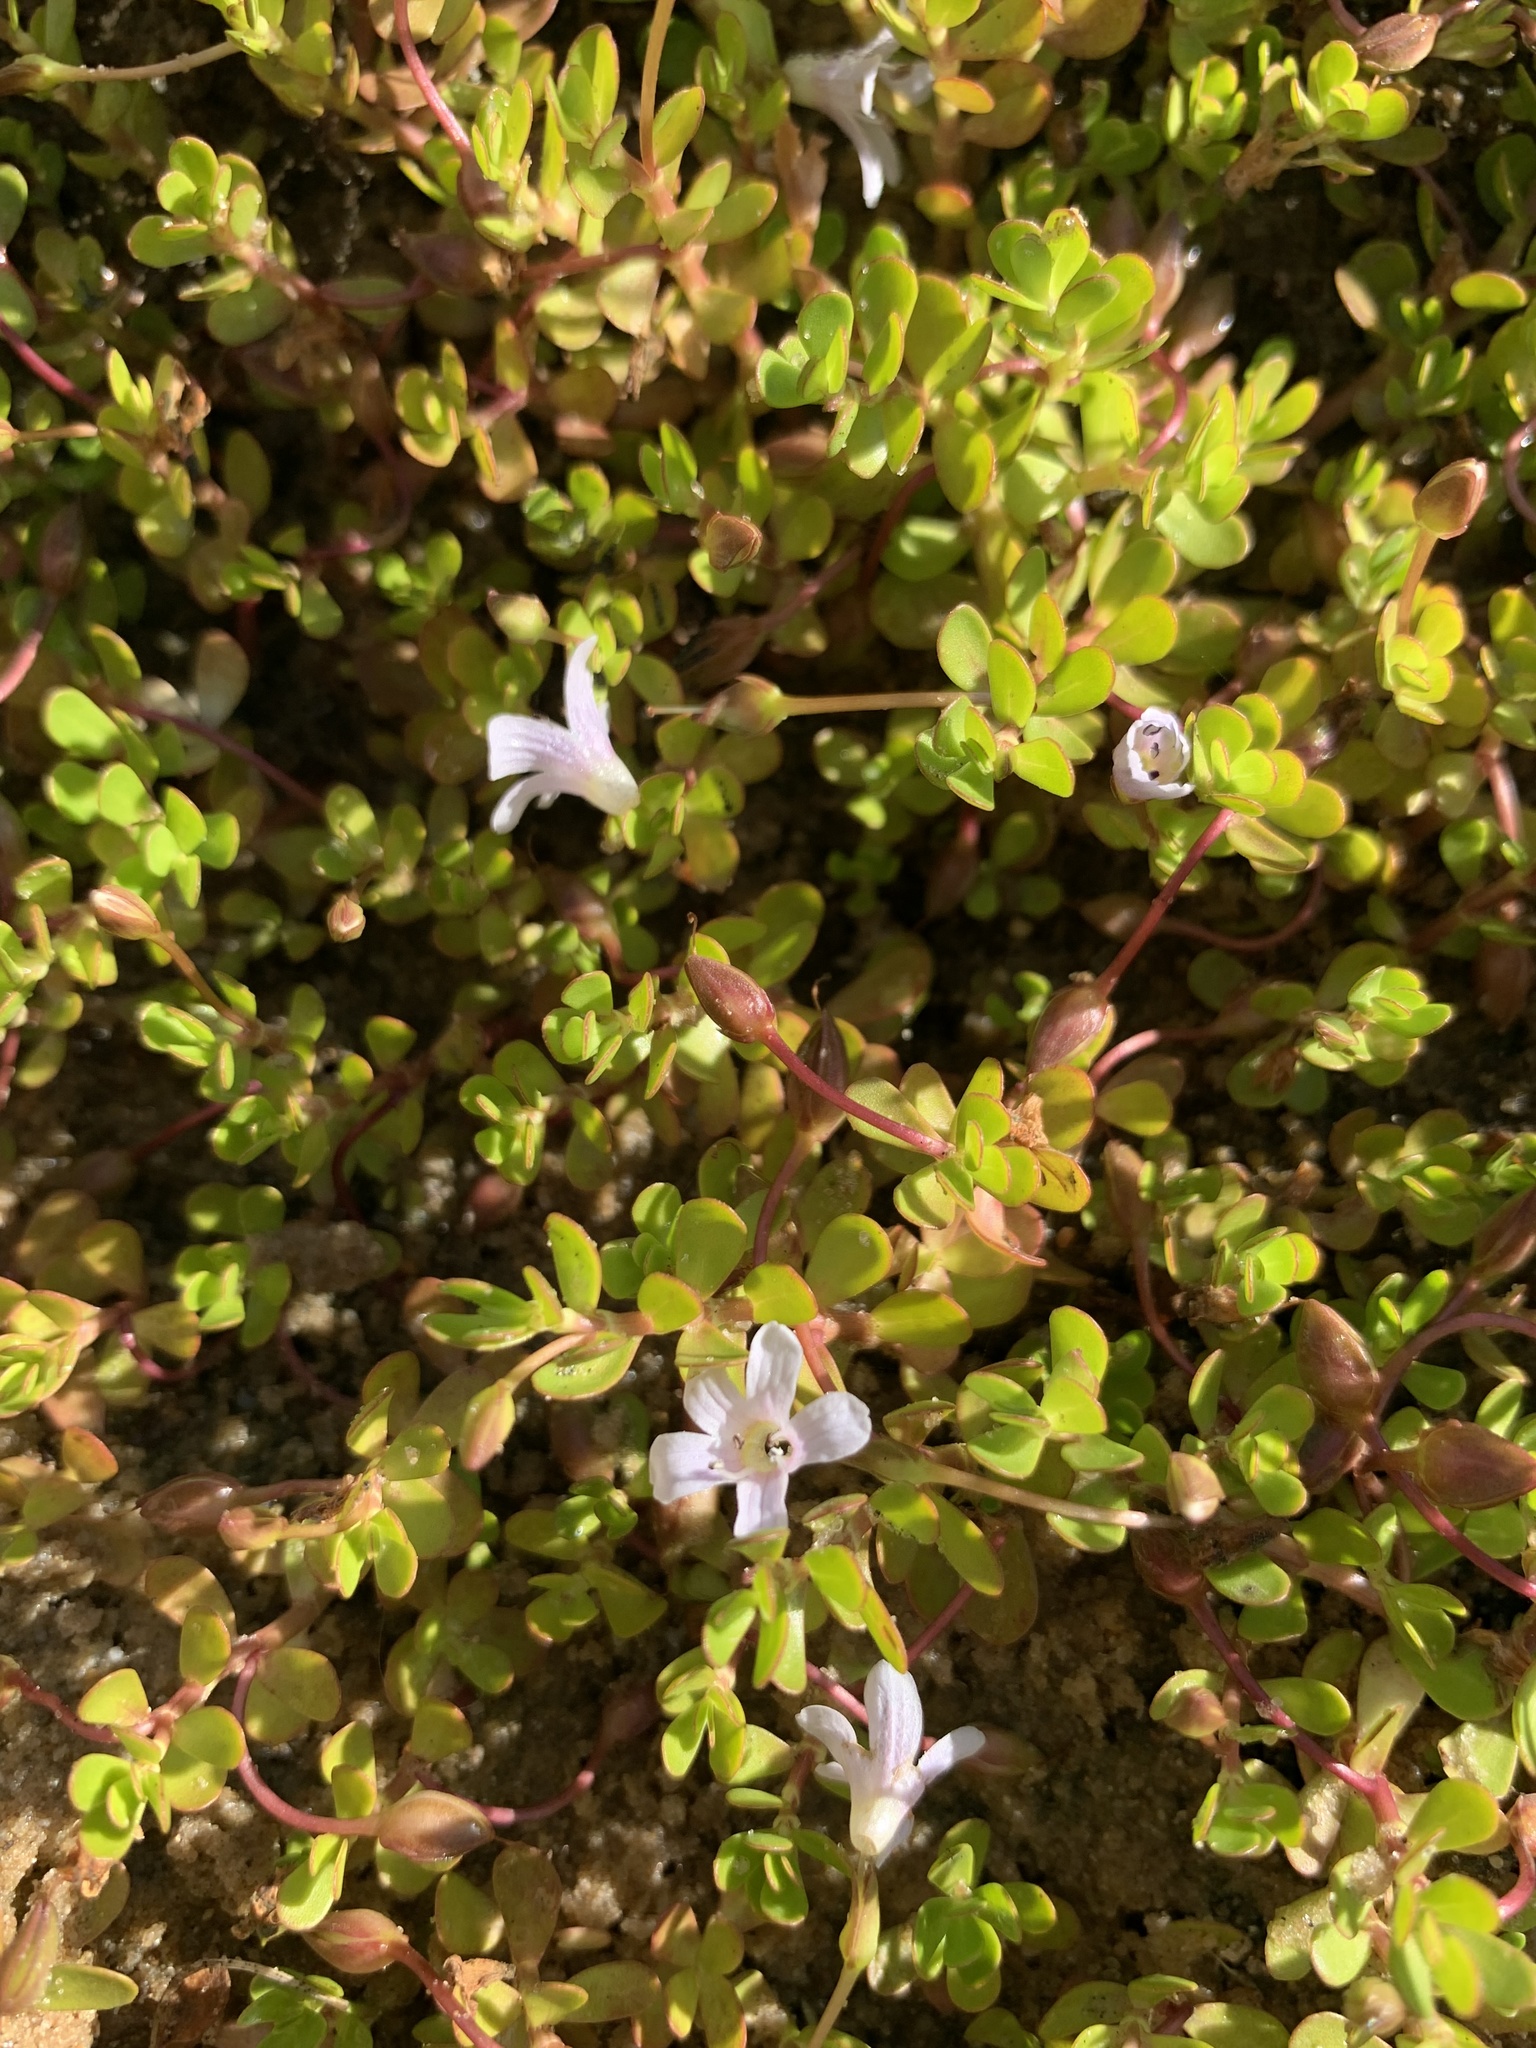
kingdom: Plantae
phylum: Tracheophyta
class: Magnoliopsida
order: Lamiales
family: Plantaginaceae
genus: Bacopa
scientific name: Bacopa monnieri
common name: Indian-pennywort
